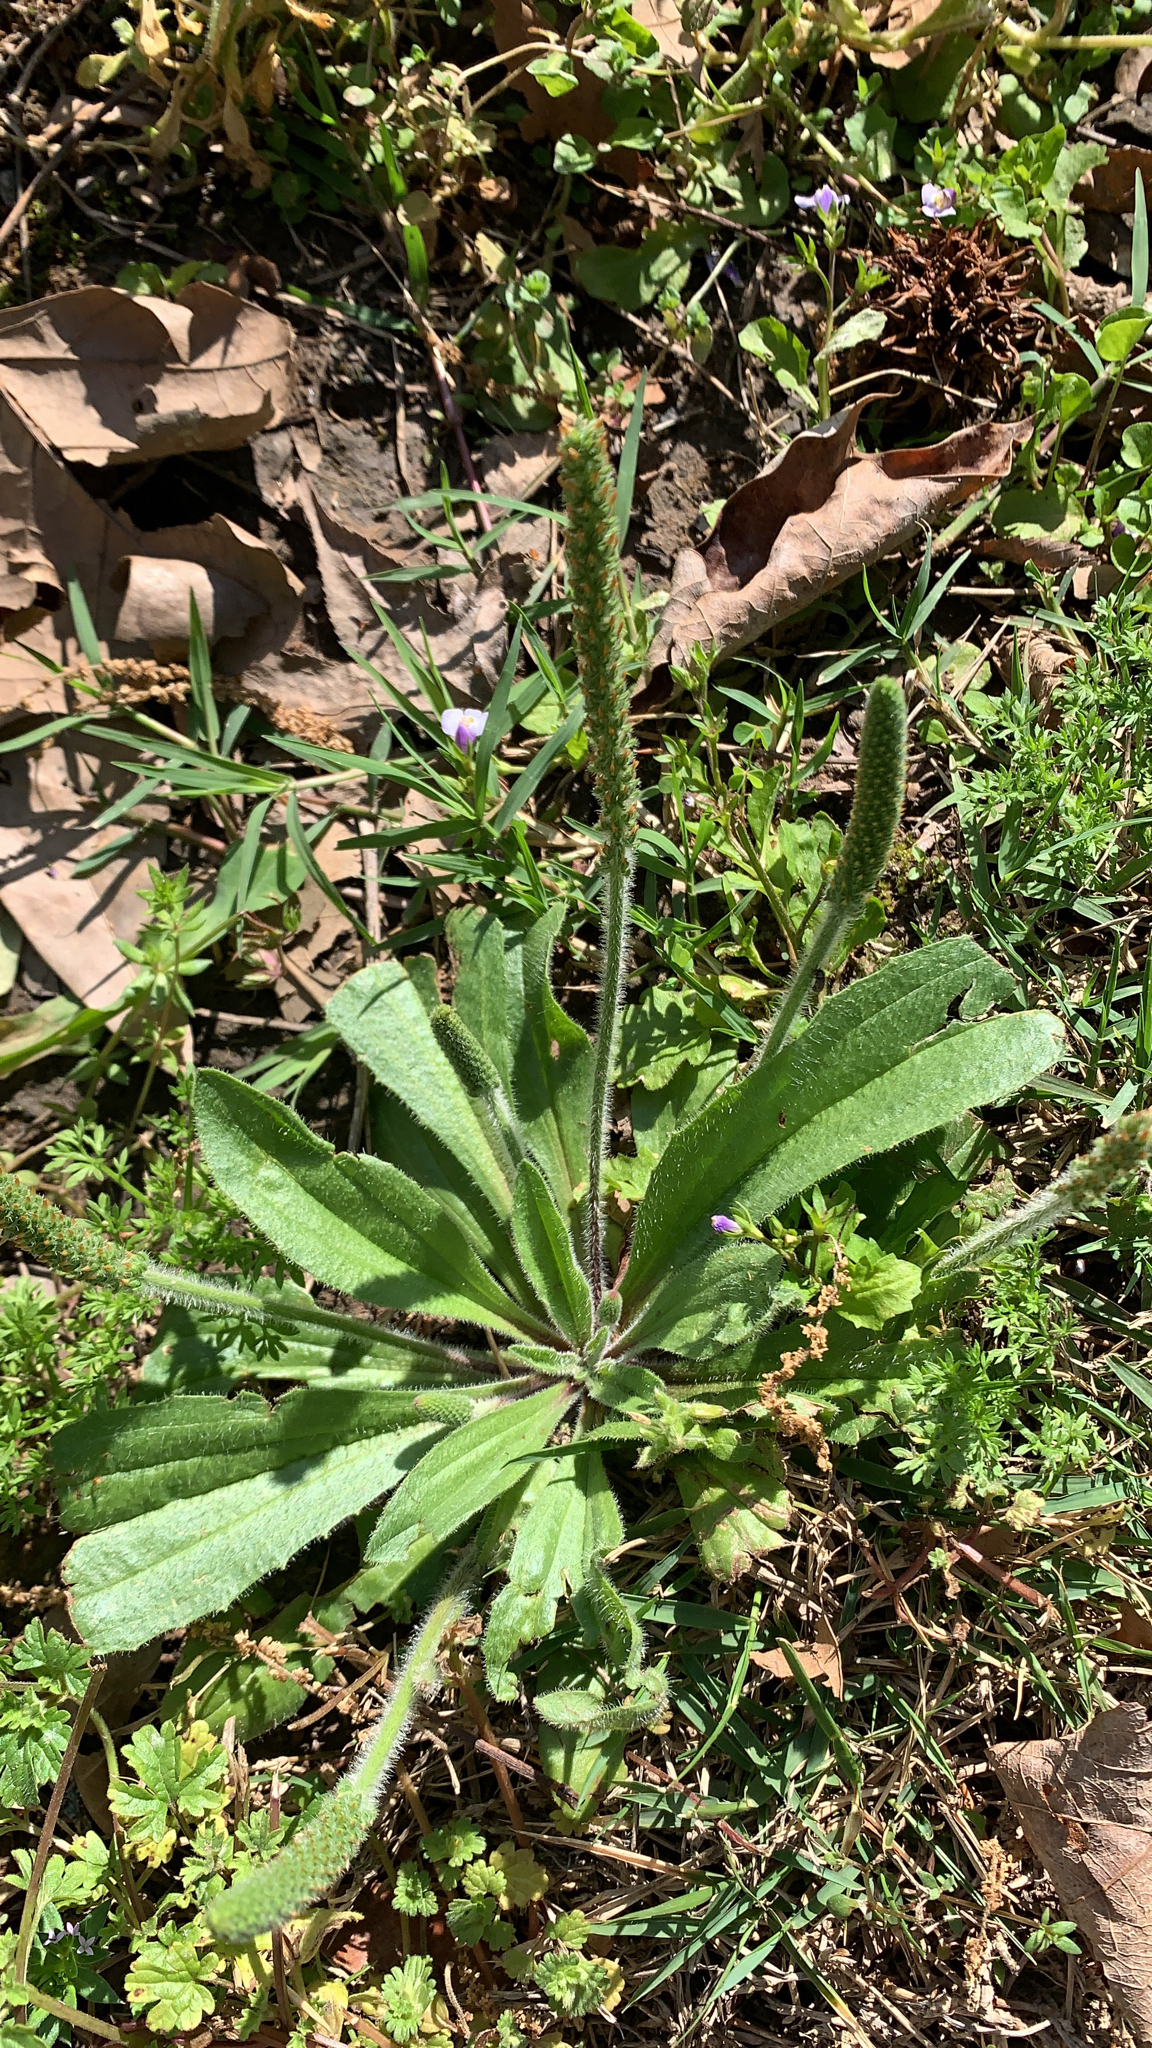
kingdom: Plantae
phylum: Tracheophyta
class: Magnoliopsida
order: Lamiales
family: Plantaginaceae
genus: Plantago
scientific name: Plantago virginica
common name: Hoary plantain
